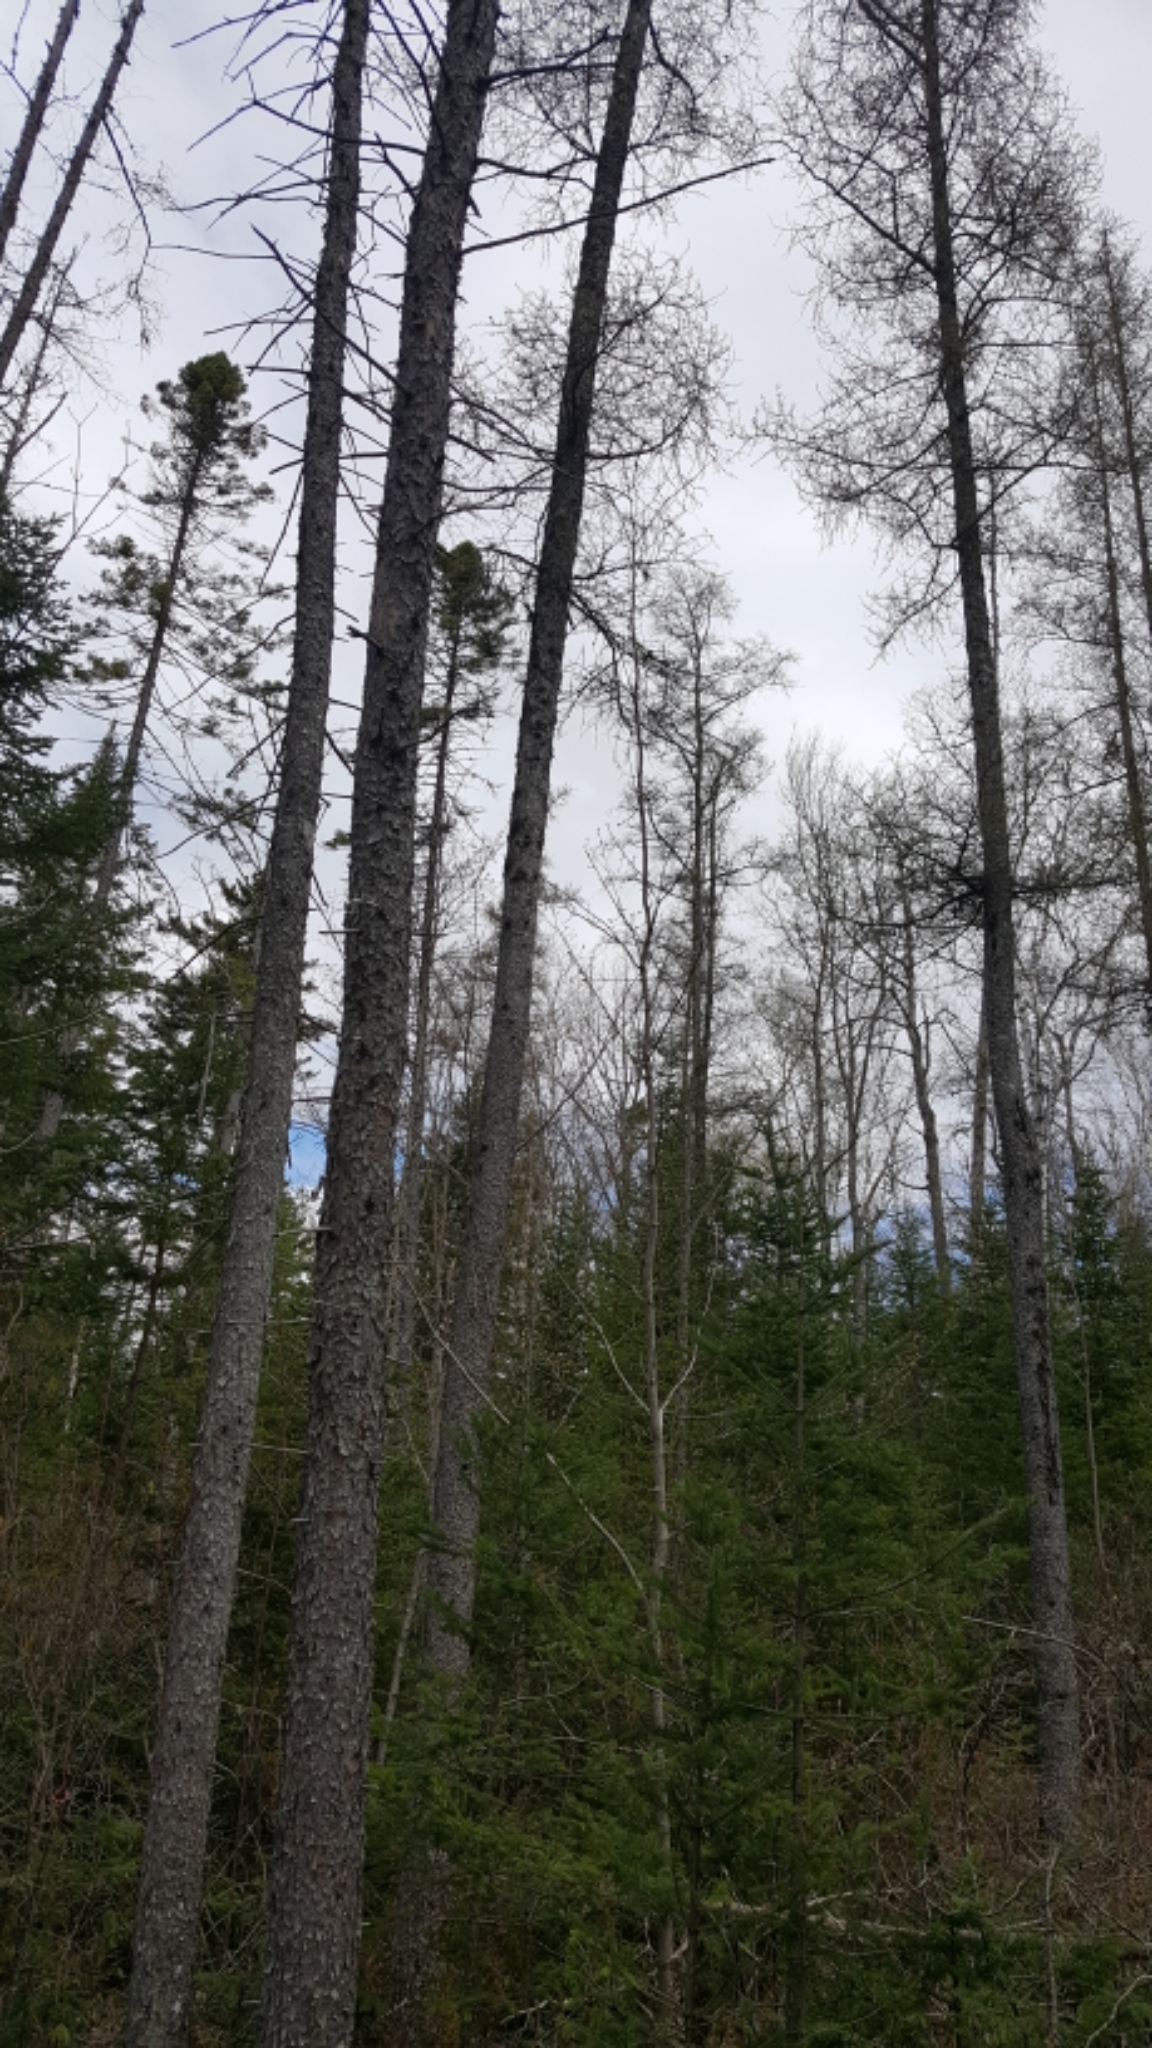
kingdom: Plantae
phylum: Tracheophyta
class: Pinopsida
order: Pinales
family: Pinaceae
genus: Larix
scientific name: Larix laricina
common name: American larch
